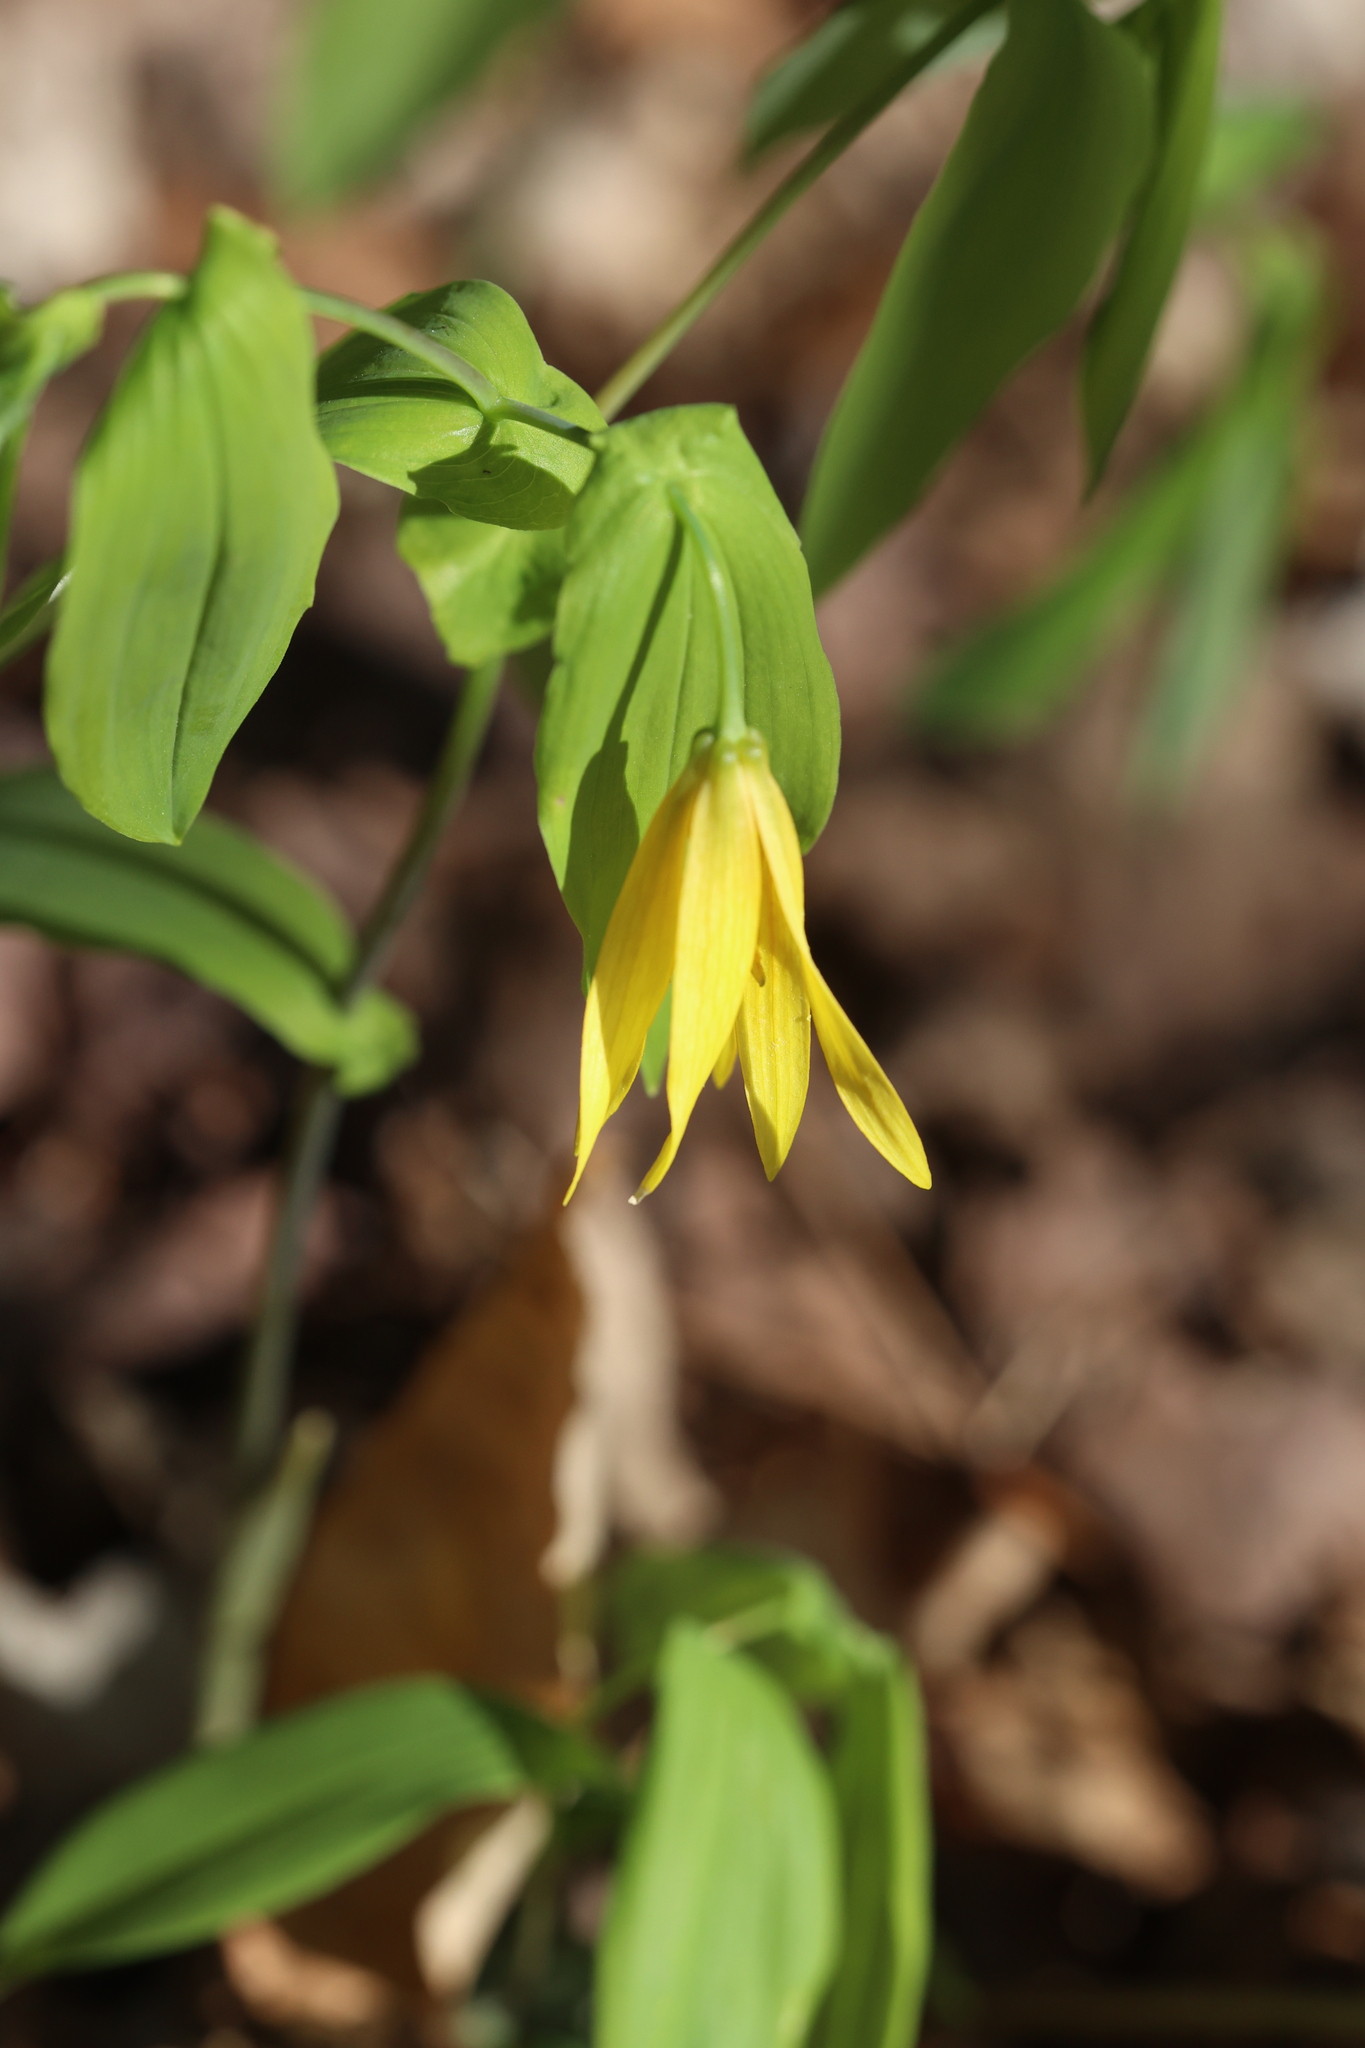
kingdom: Plantae
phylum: Tracheophyta
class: Liliopsida
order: Liliales
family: Colchicaceae
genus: Uvularia
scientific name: Uvularia grandiflora
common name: Bellwort
